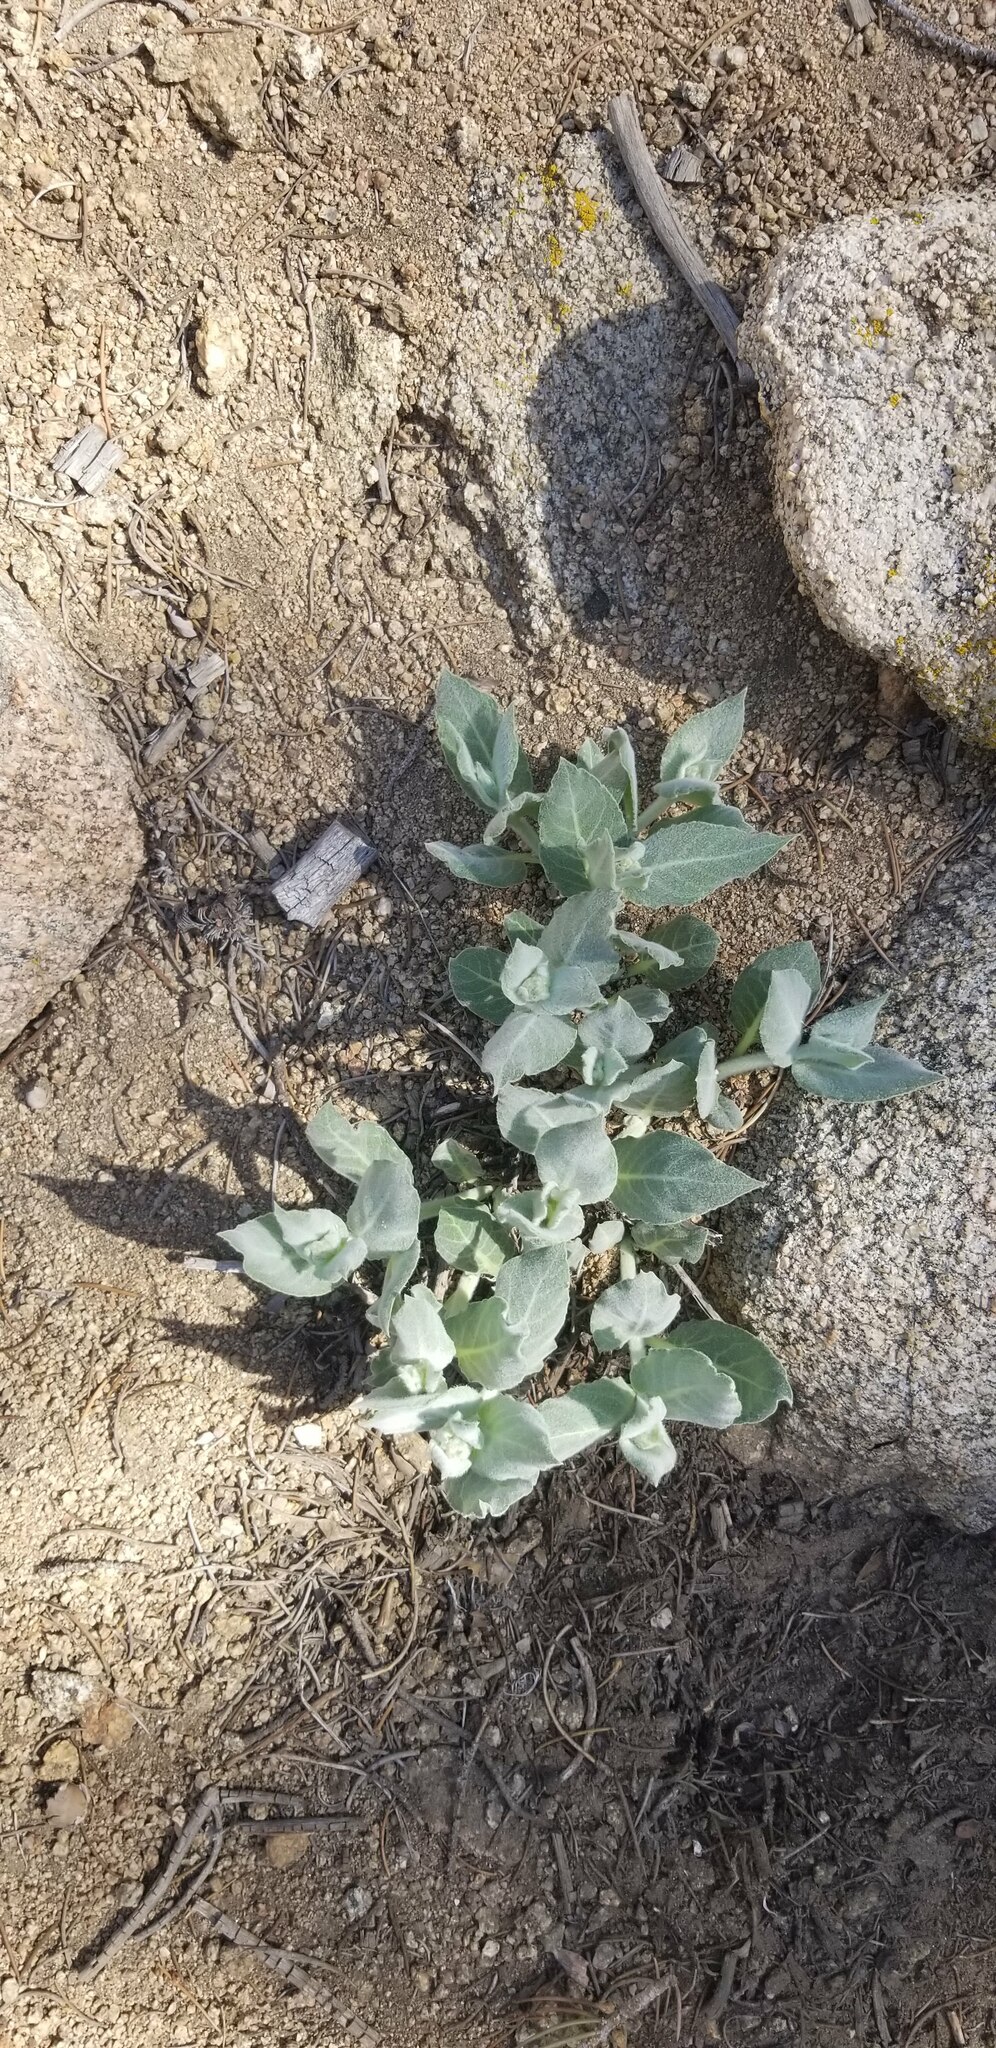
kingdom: Plantae
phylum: Tracheophyta
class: Magnoliopsida
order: Gentianales
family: Apocynaceae
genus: Asclepias
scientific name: Asclepias californica
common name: California milkweed
